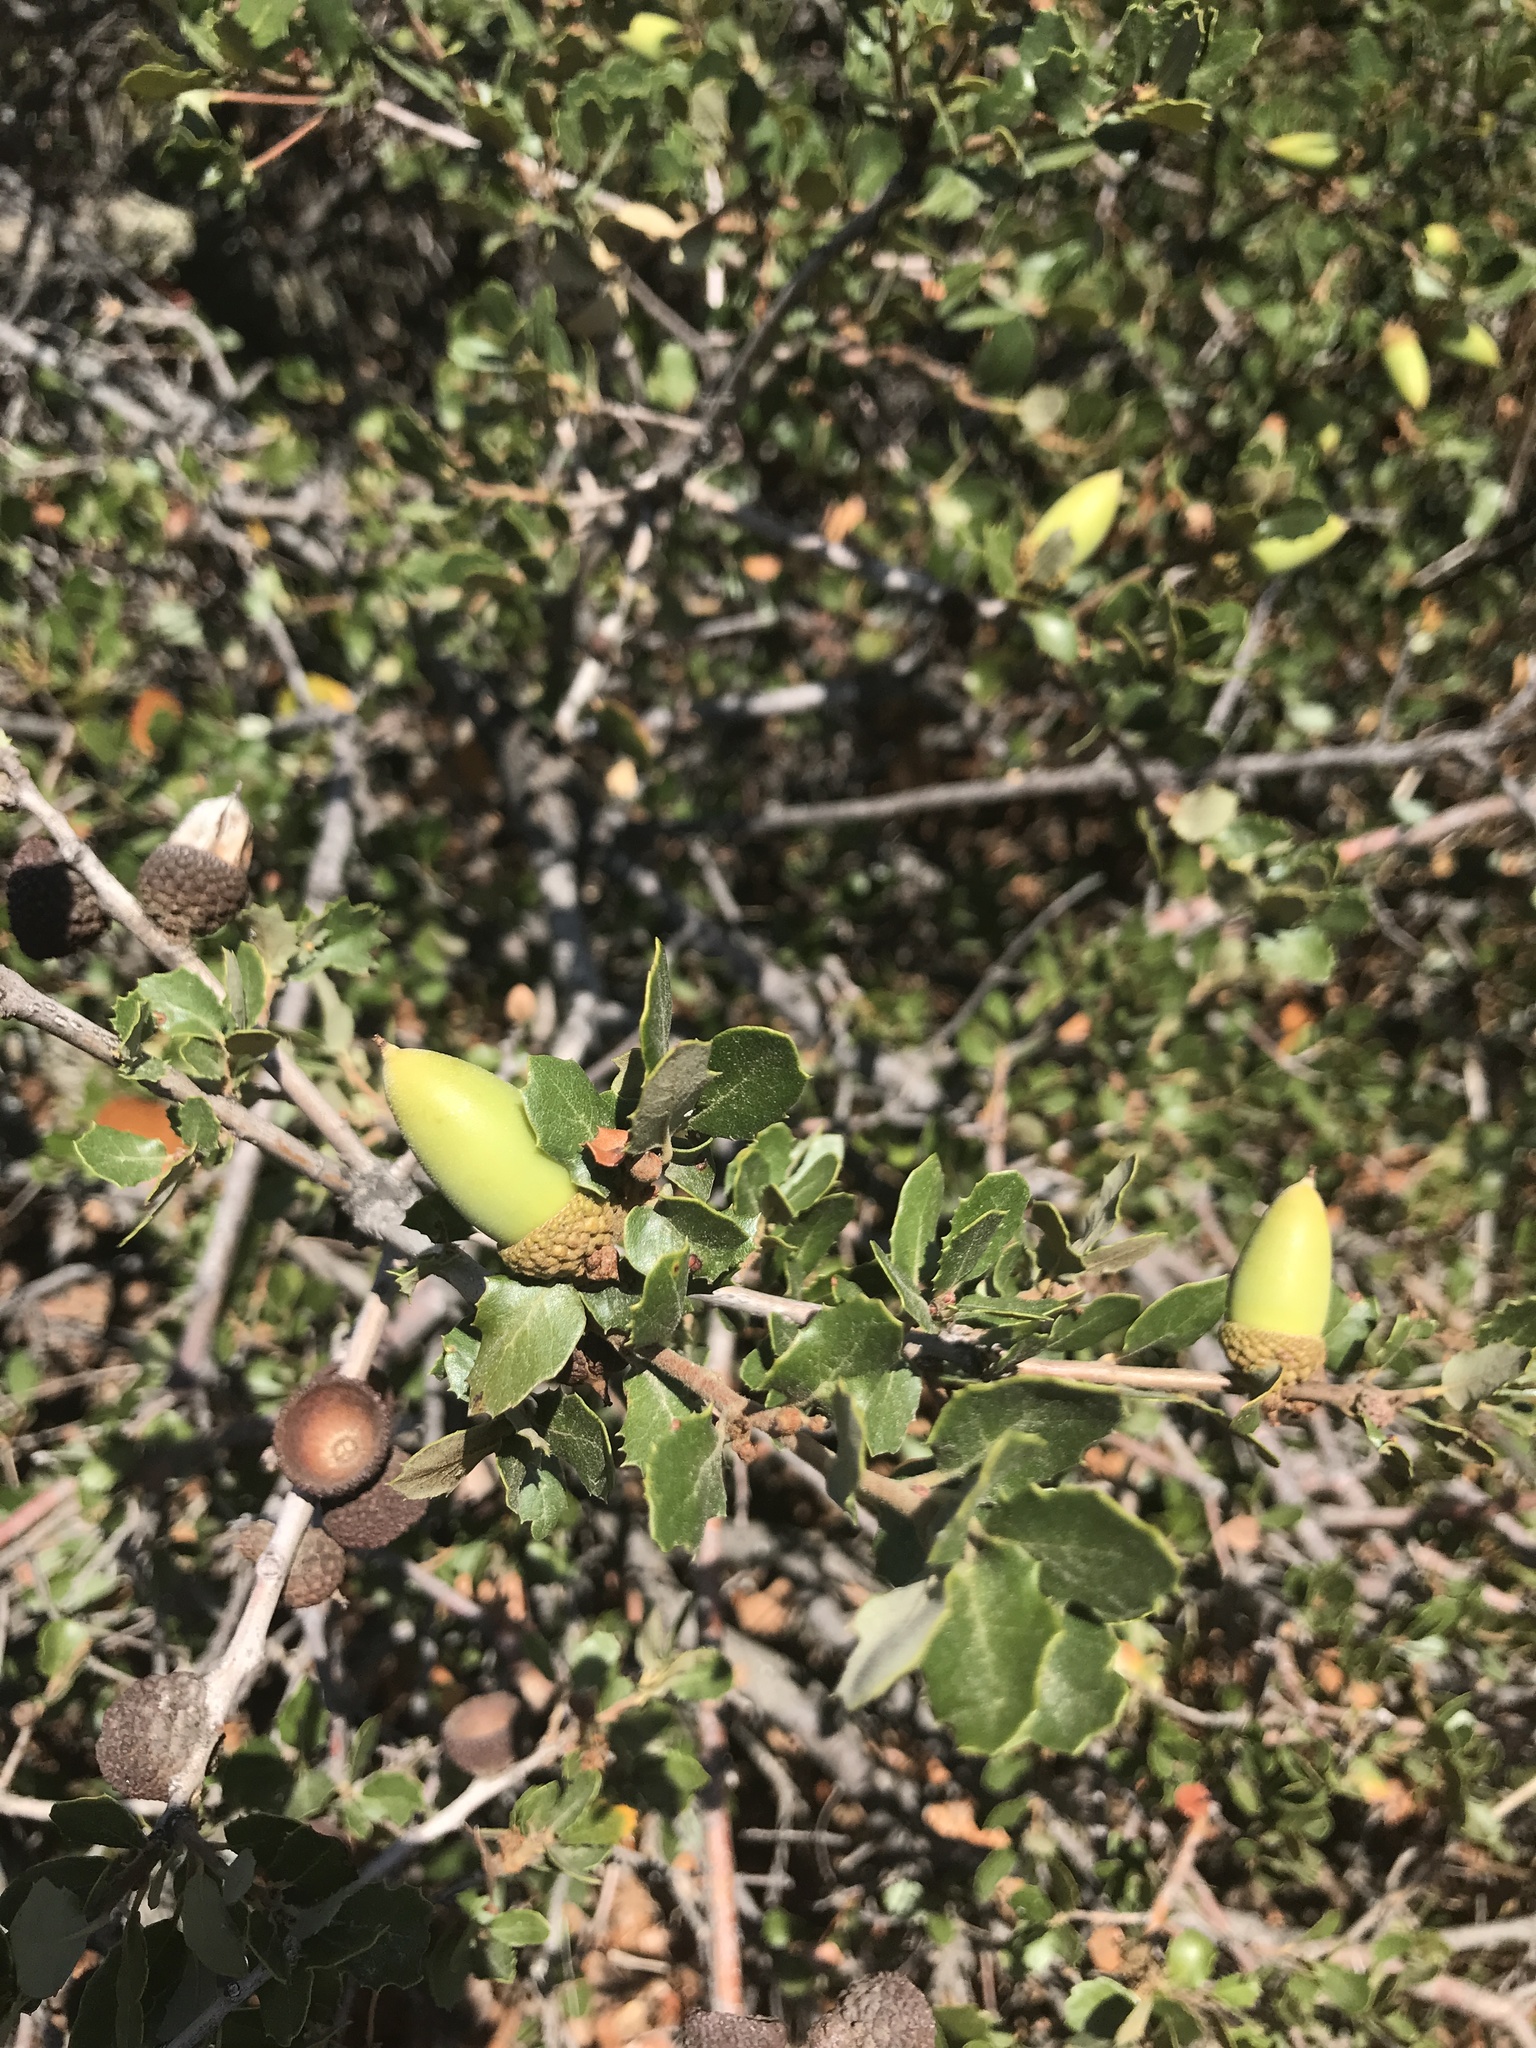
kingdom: Plantae
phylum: Tracheophyta
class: Magnoliopsida
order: Fagales
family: Fagaceae
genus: Quercus
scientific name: Quercus berberidifolia
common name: California scrub oak
